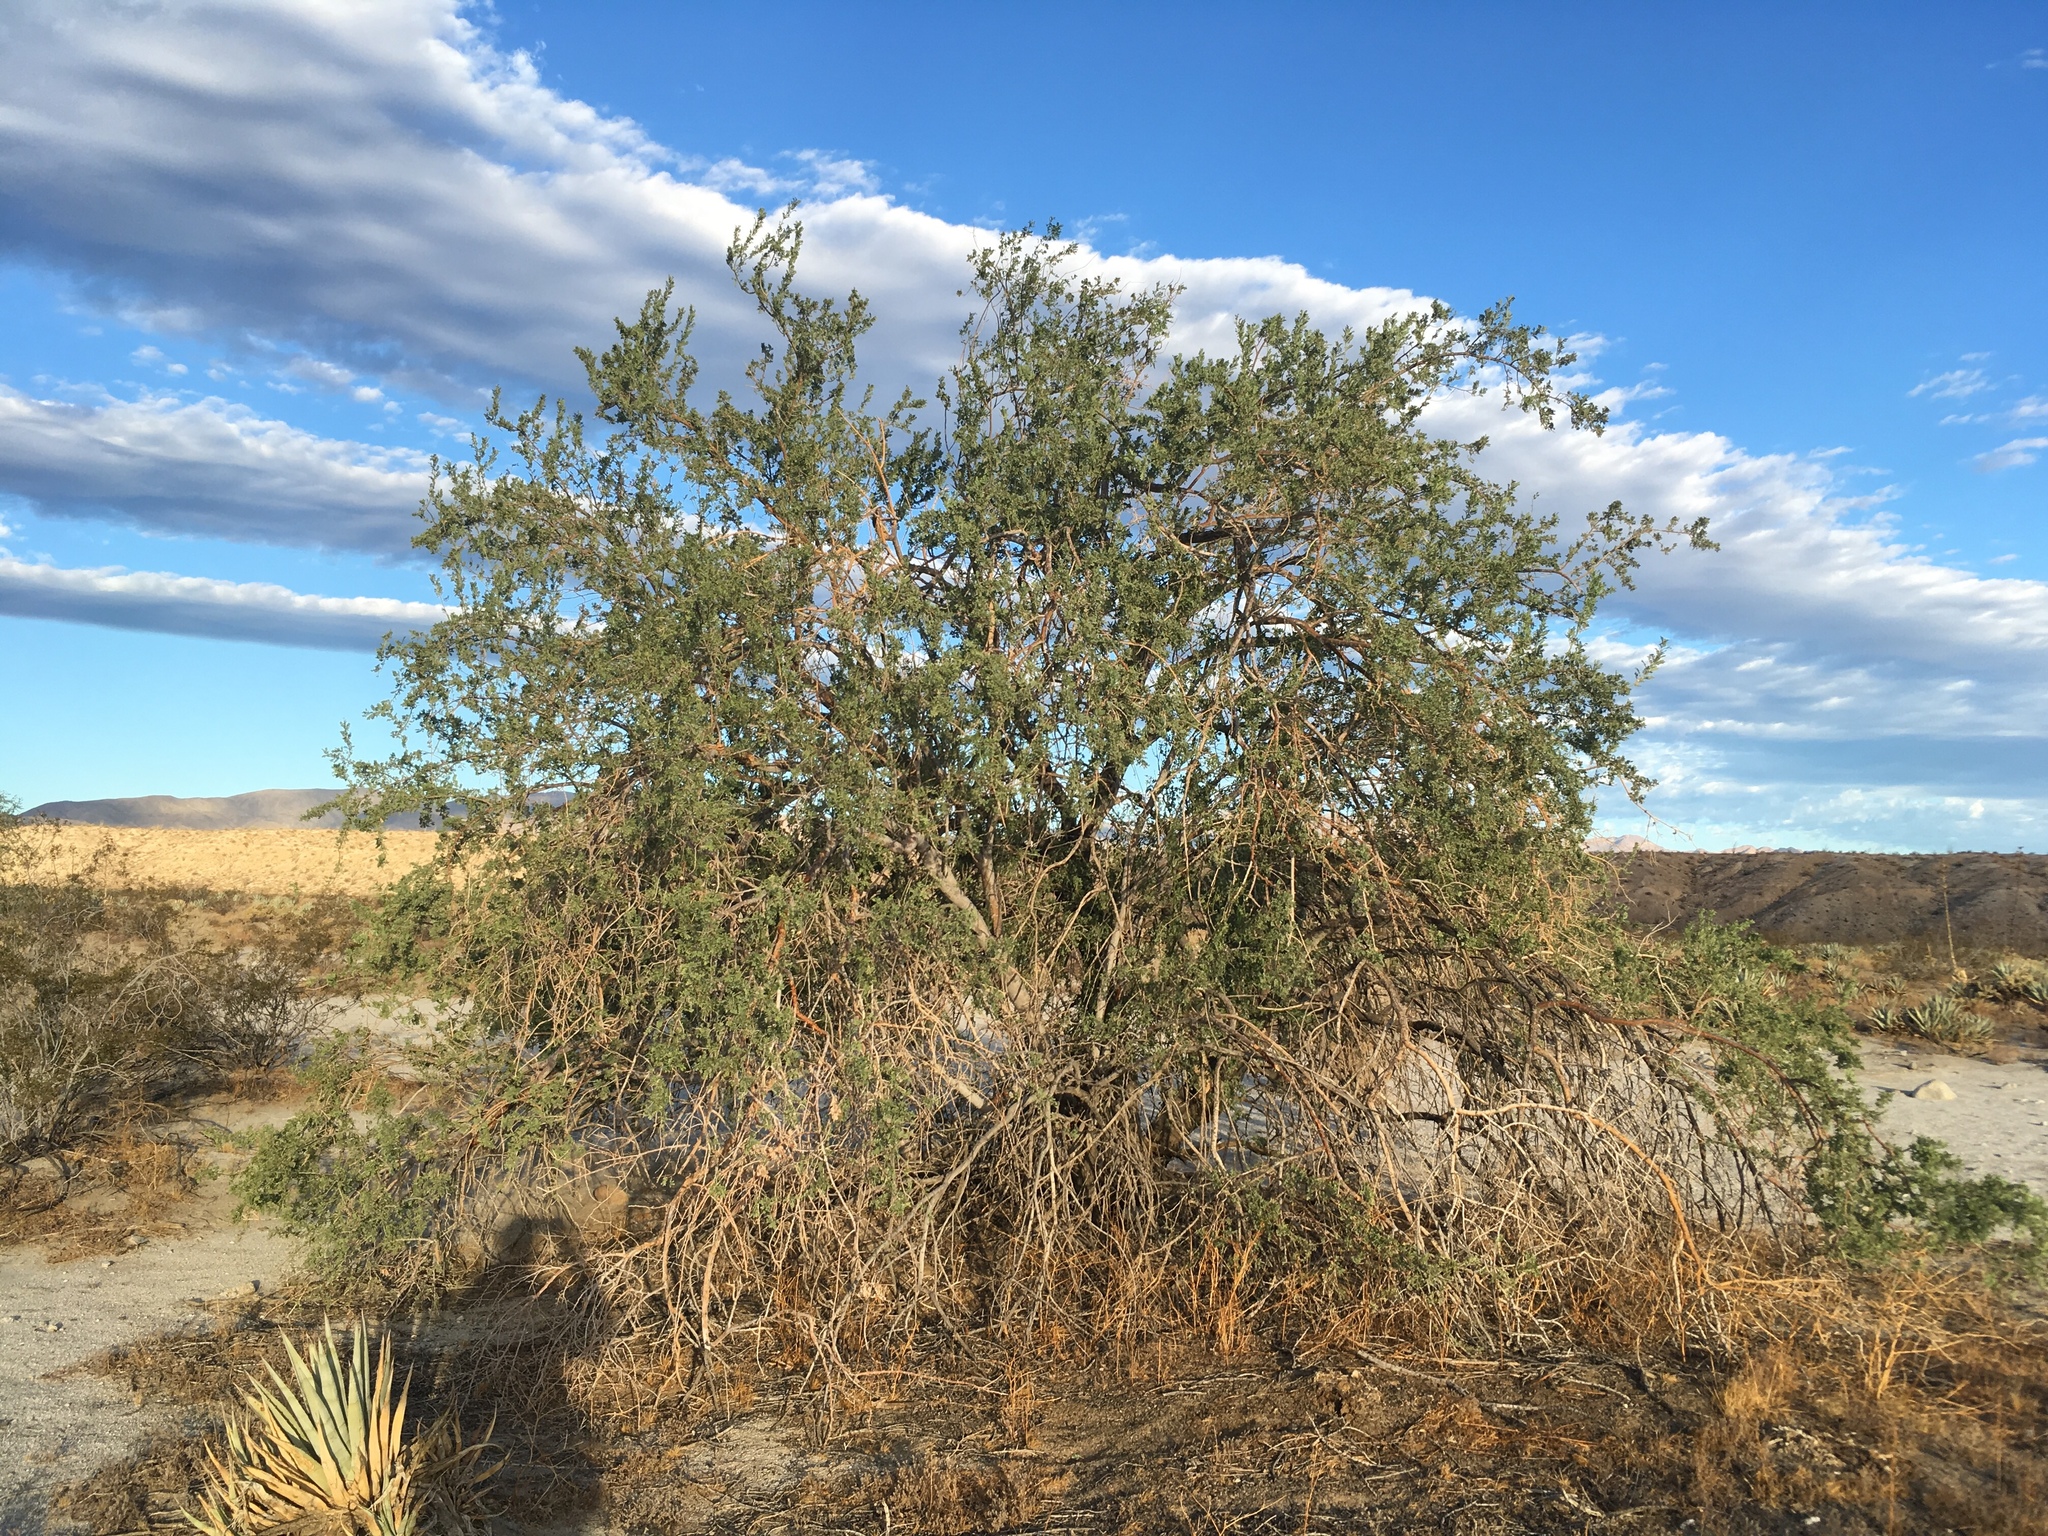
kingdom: Plantae
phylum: Tracheophyta
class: Magnoliopsida
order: Fabales
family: Fabaceae
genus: Olneya
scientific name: Olneya tesota
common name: Desert ironwood
